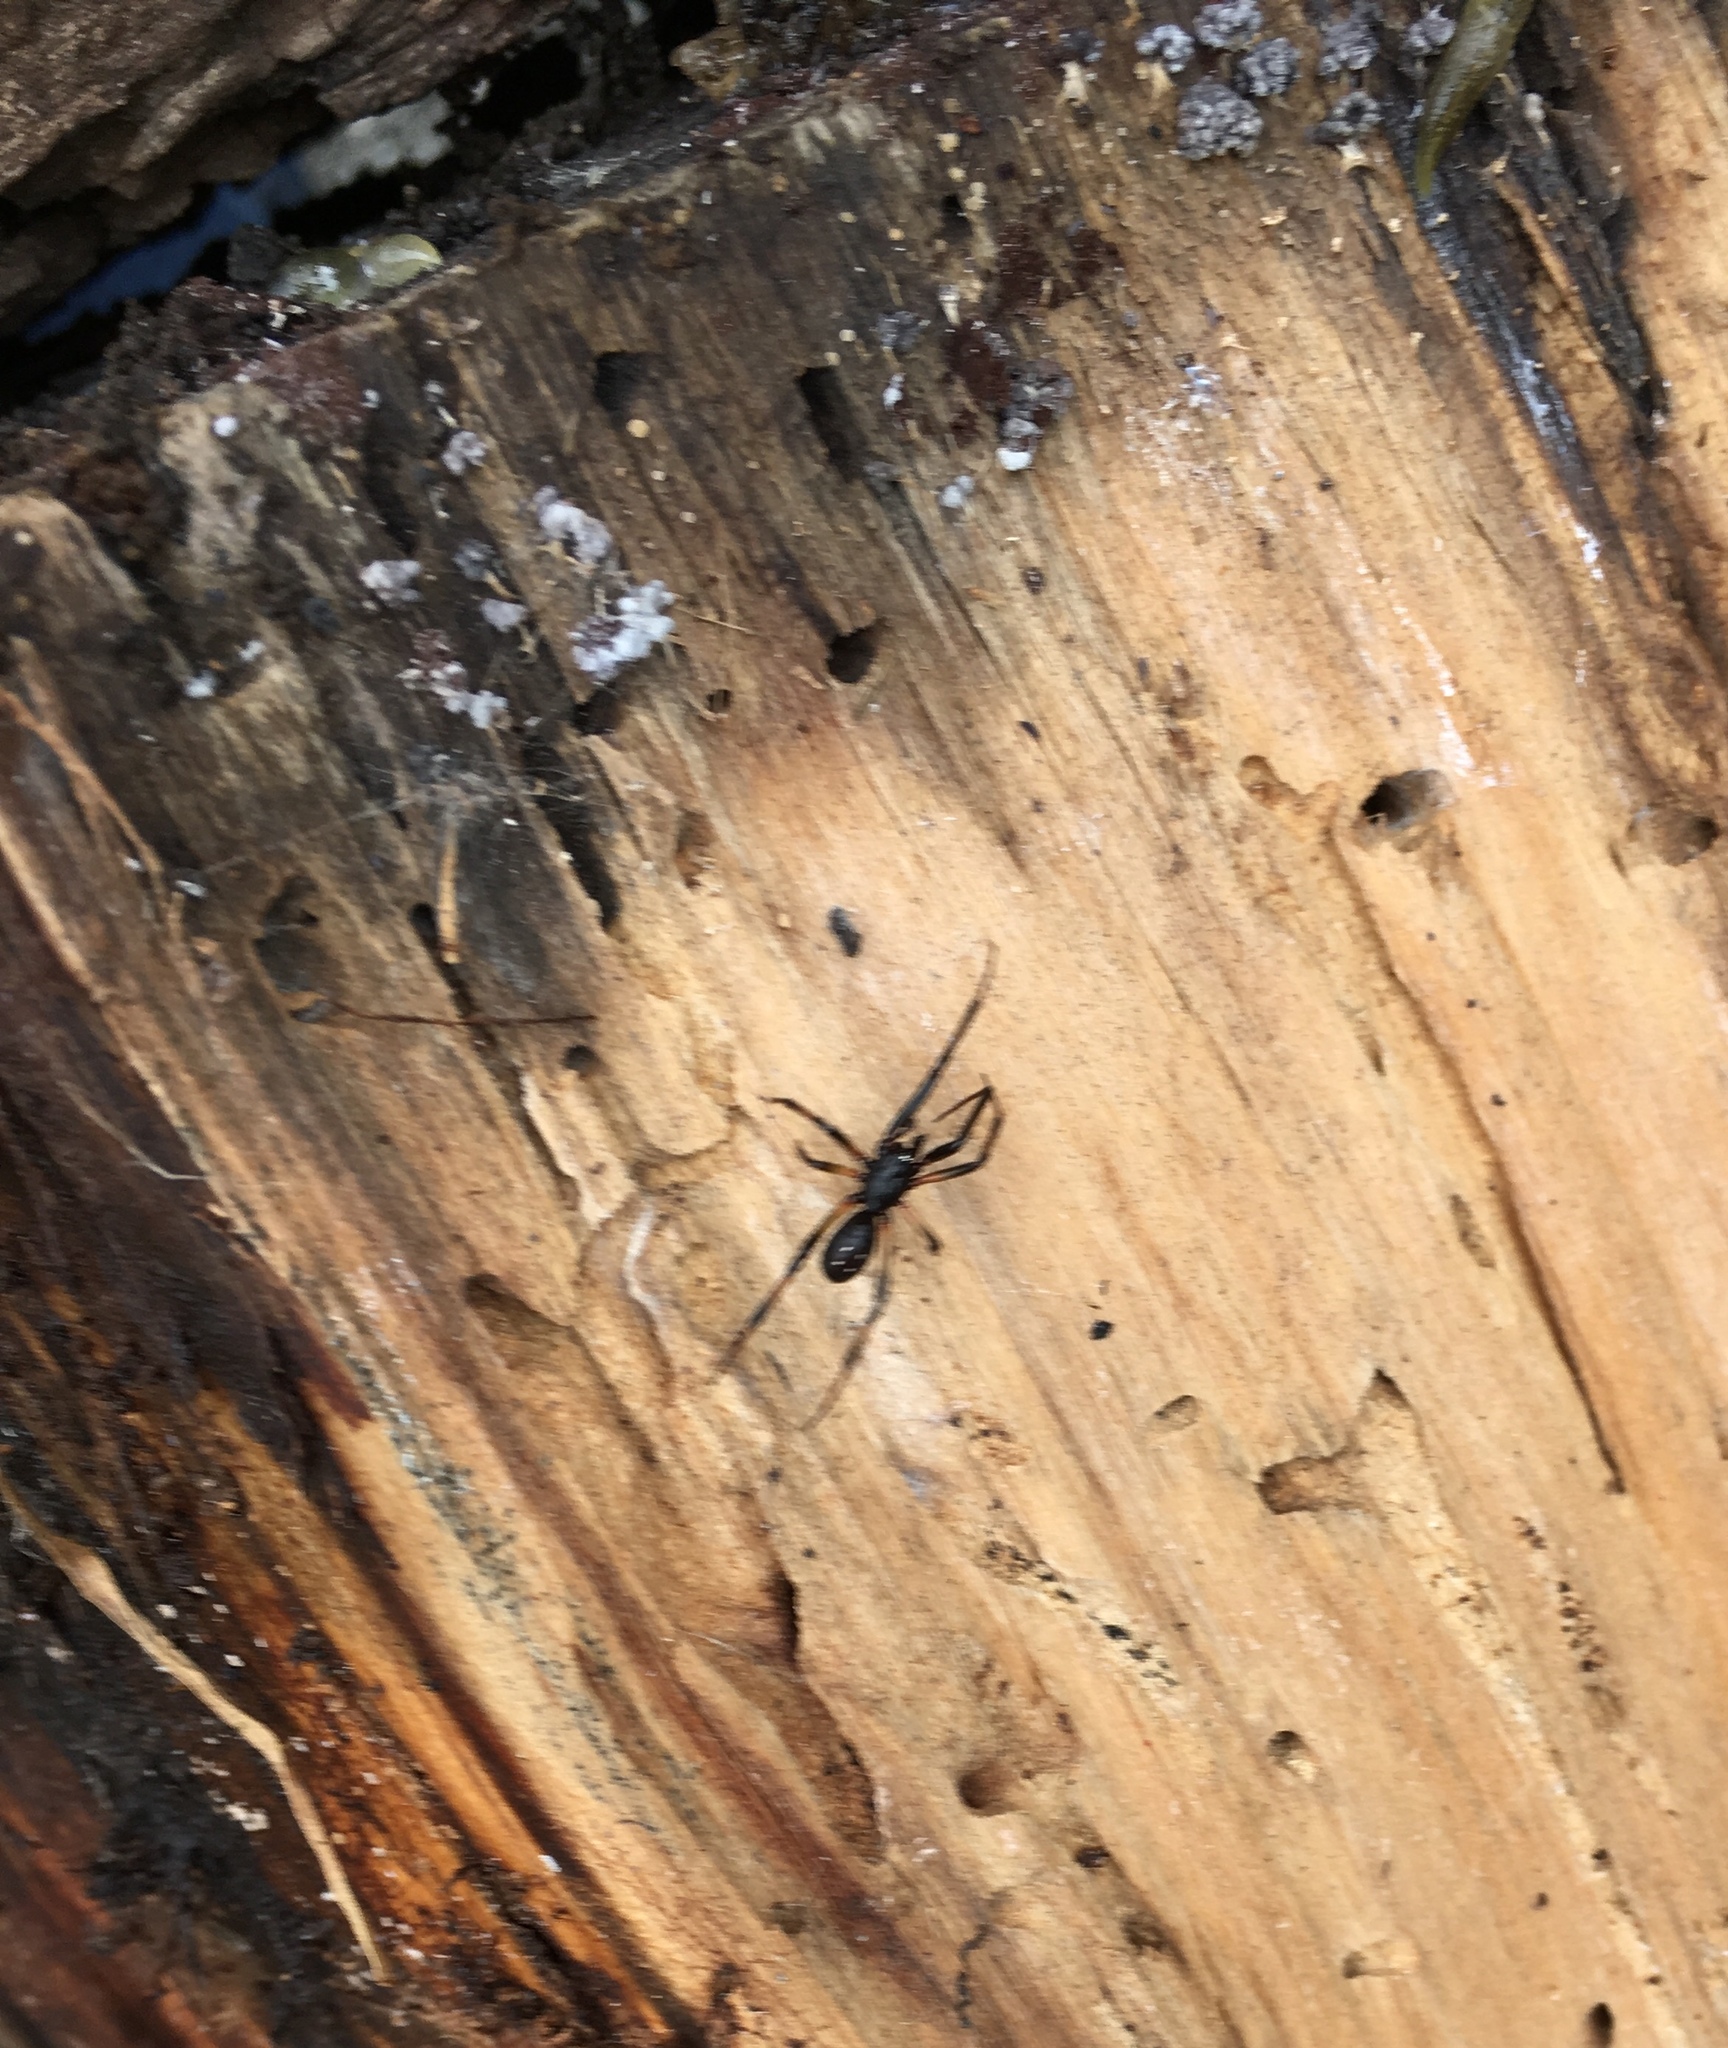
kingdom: Animalia
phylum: Arthropoda
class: Arachnida
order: Araneae
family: Theridiidae
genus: Steatoda
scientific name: Steatoda capensis
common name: Cobweb weaver
